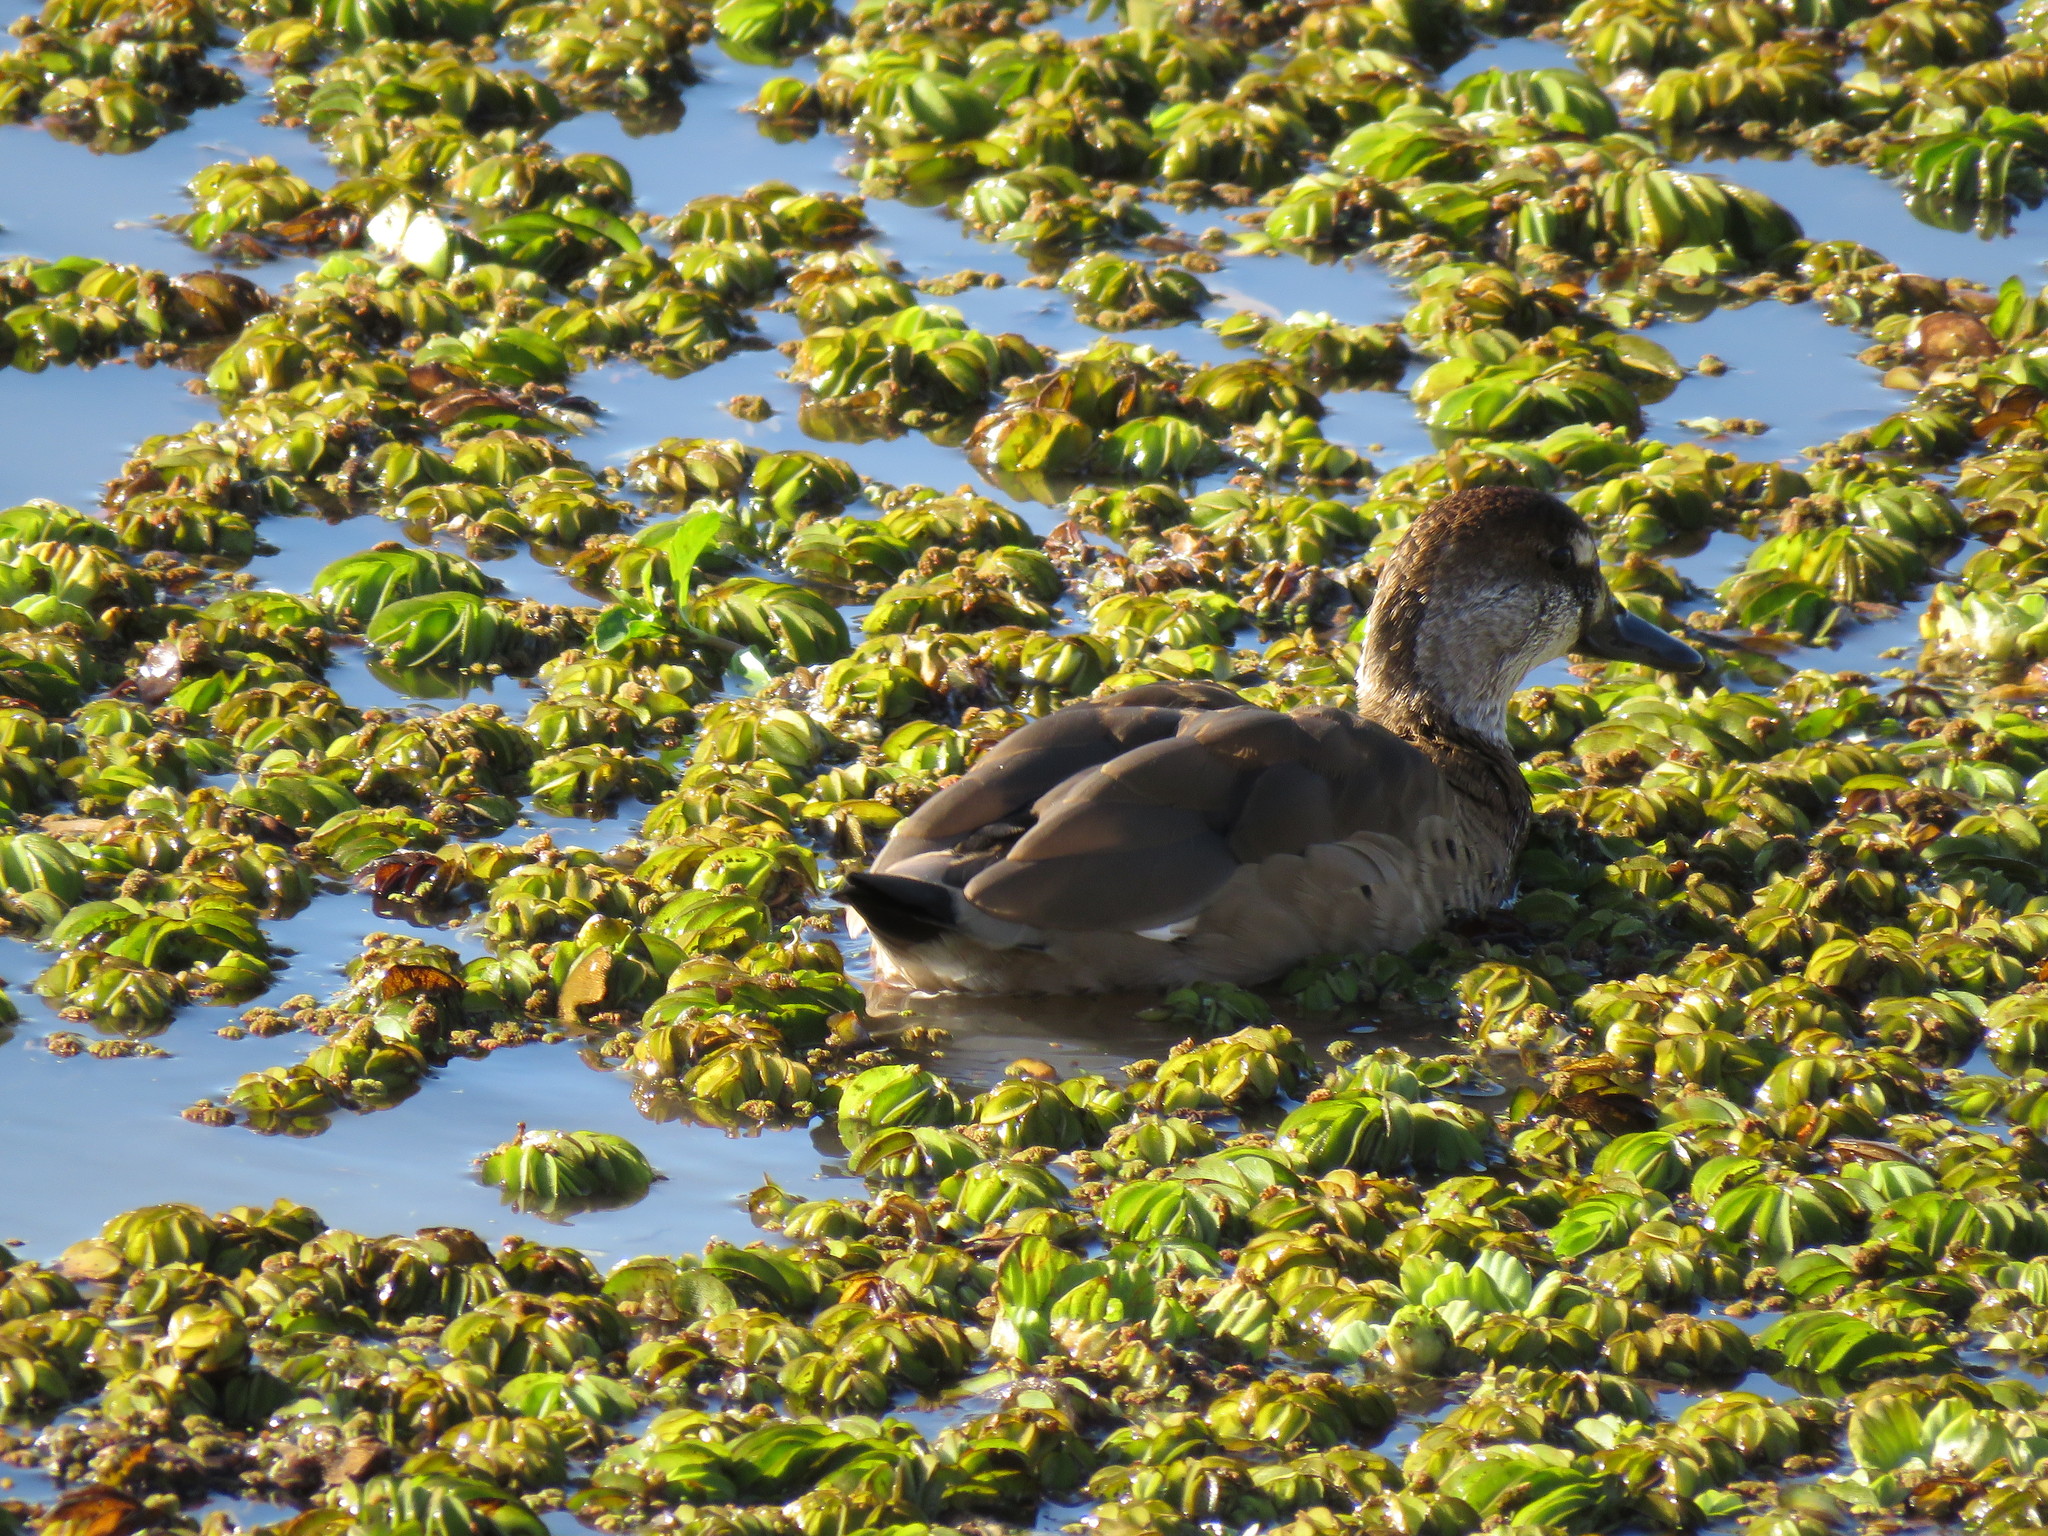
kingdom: Animalia
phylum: Chordata
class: Aves
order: Anseriformes
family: Anatidae
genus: Amazonetta
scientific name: Amazonetta brasiliensis
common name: Brazilian teal
